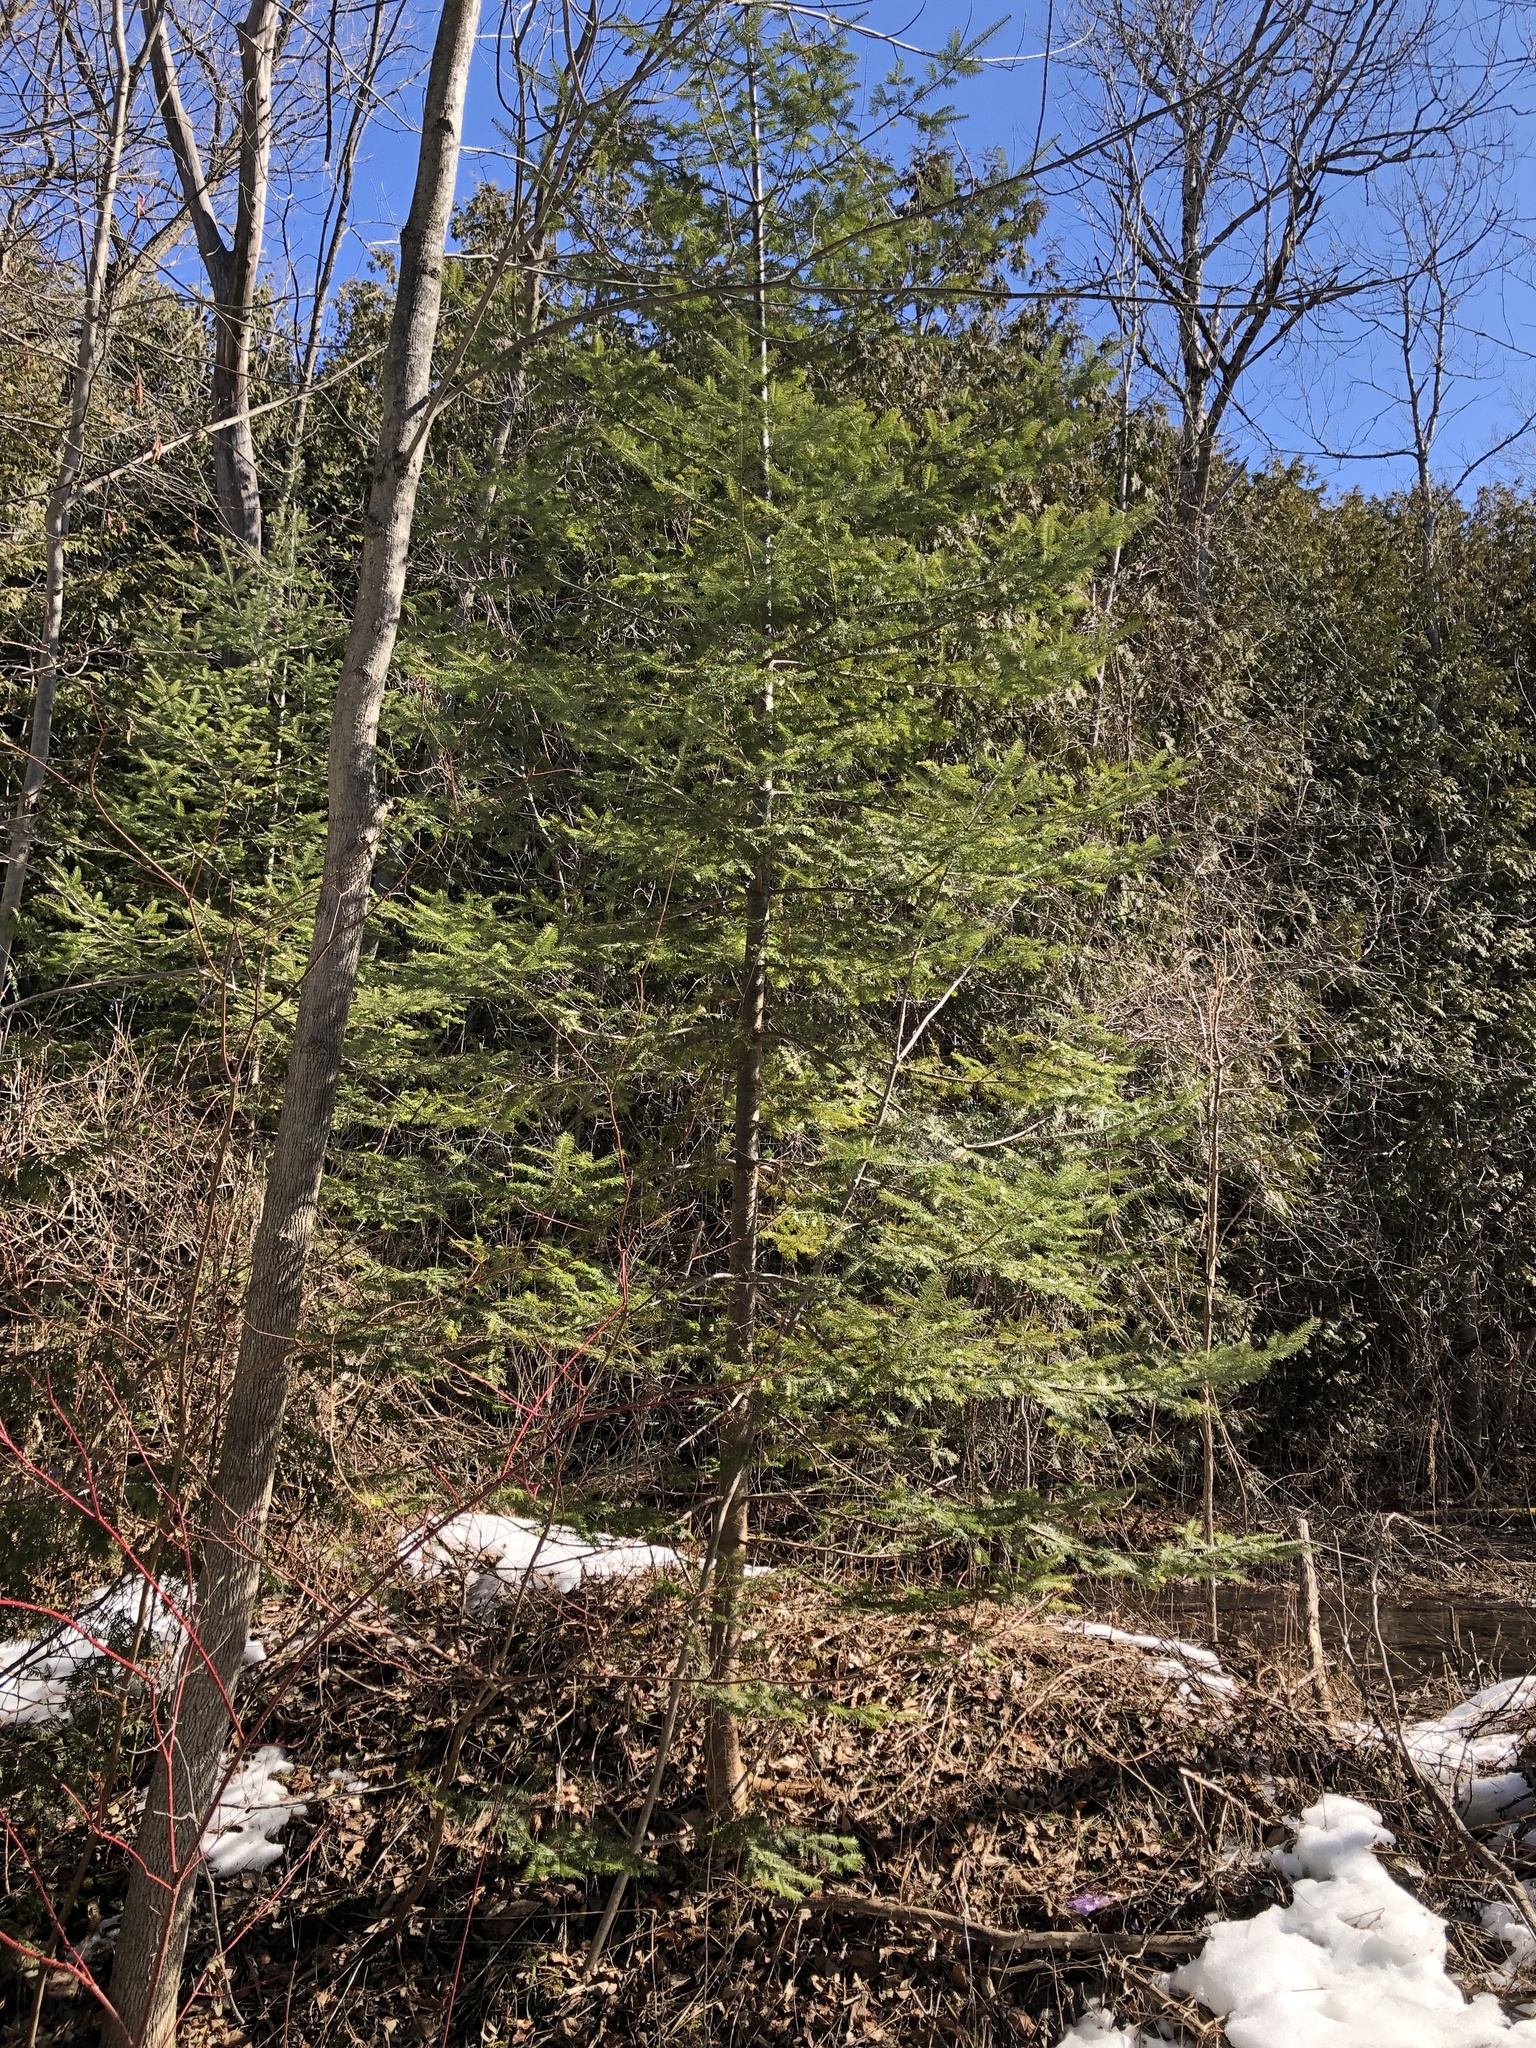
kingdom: Plantae
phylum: Tracheophyta
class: Pinopsida
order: Pinales
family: Pinaceae
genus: Abies
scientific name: Abies balsamea
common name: Balsam fir
